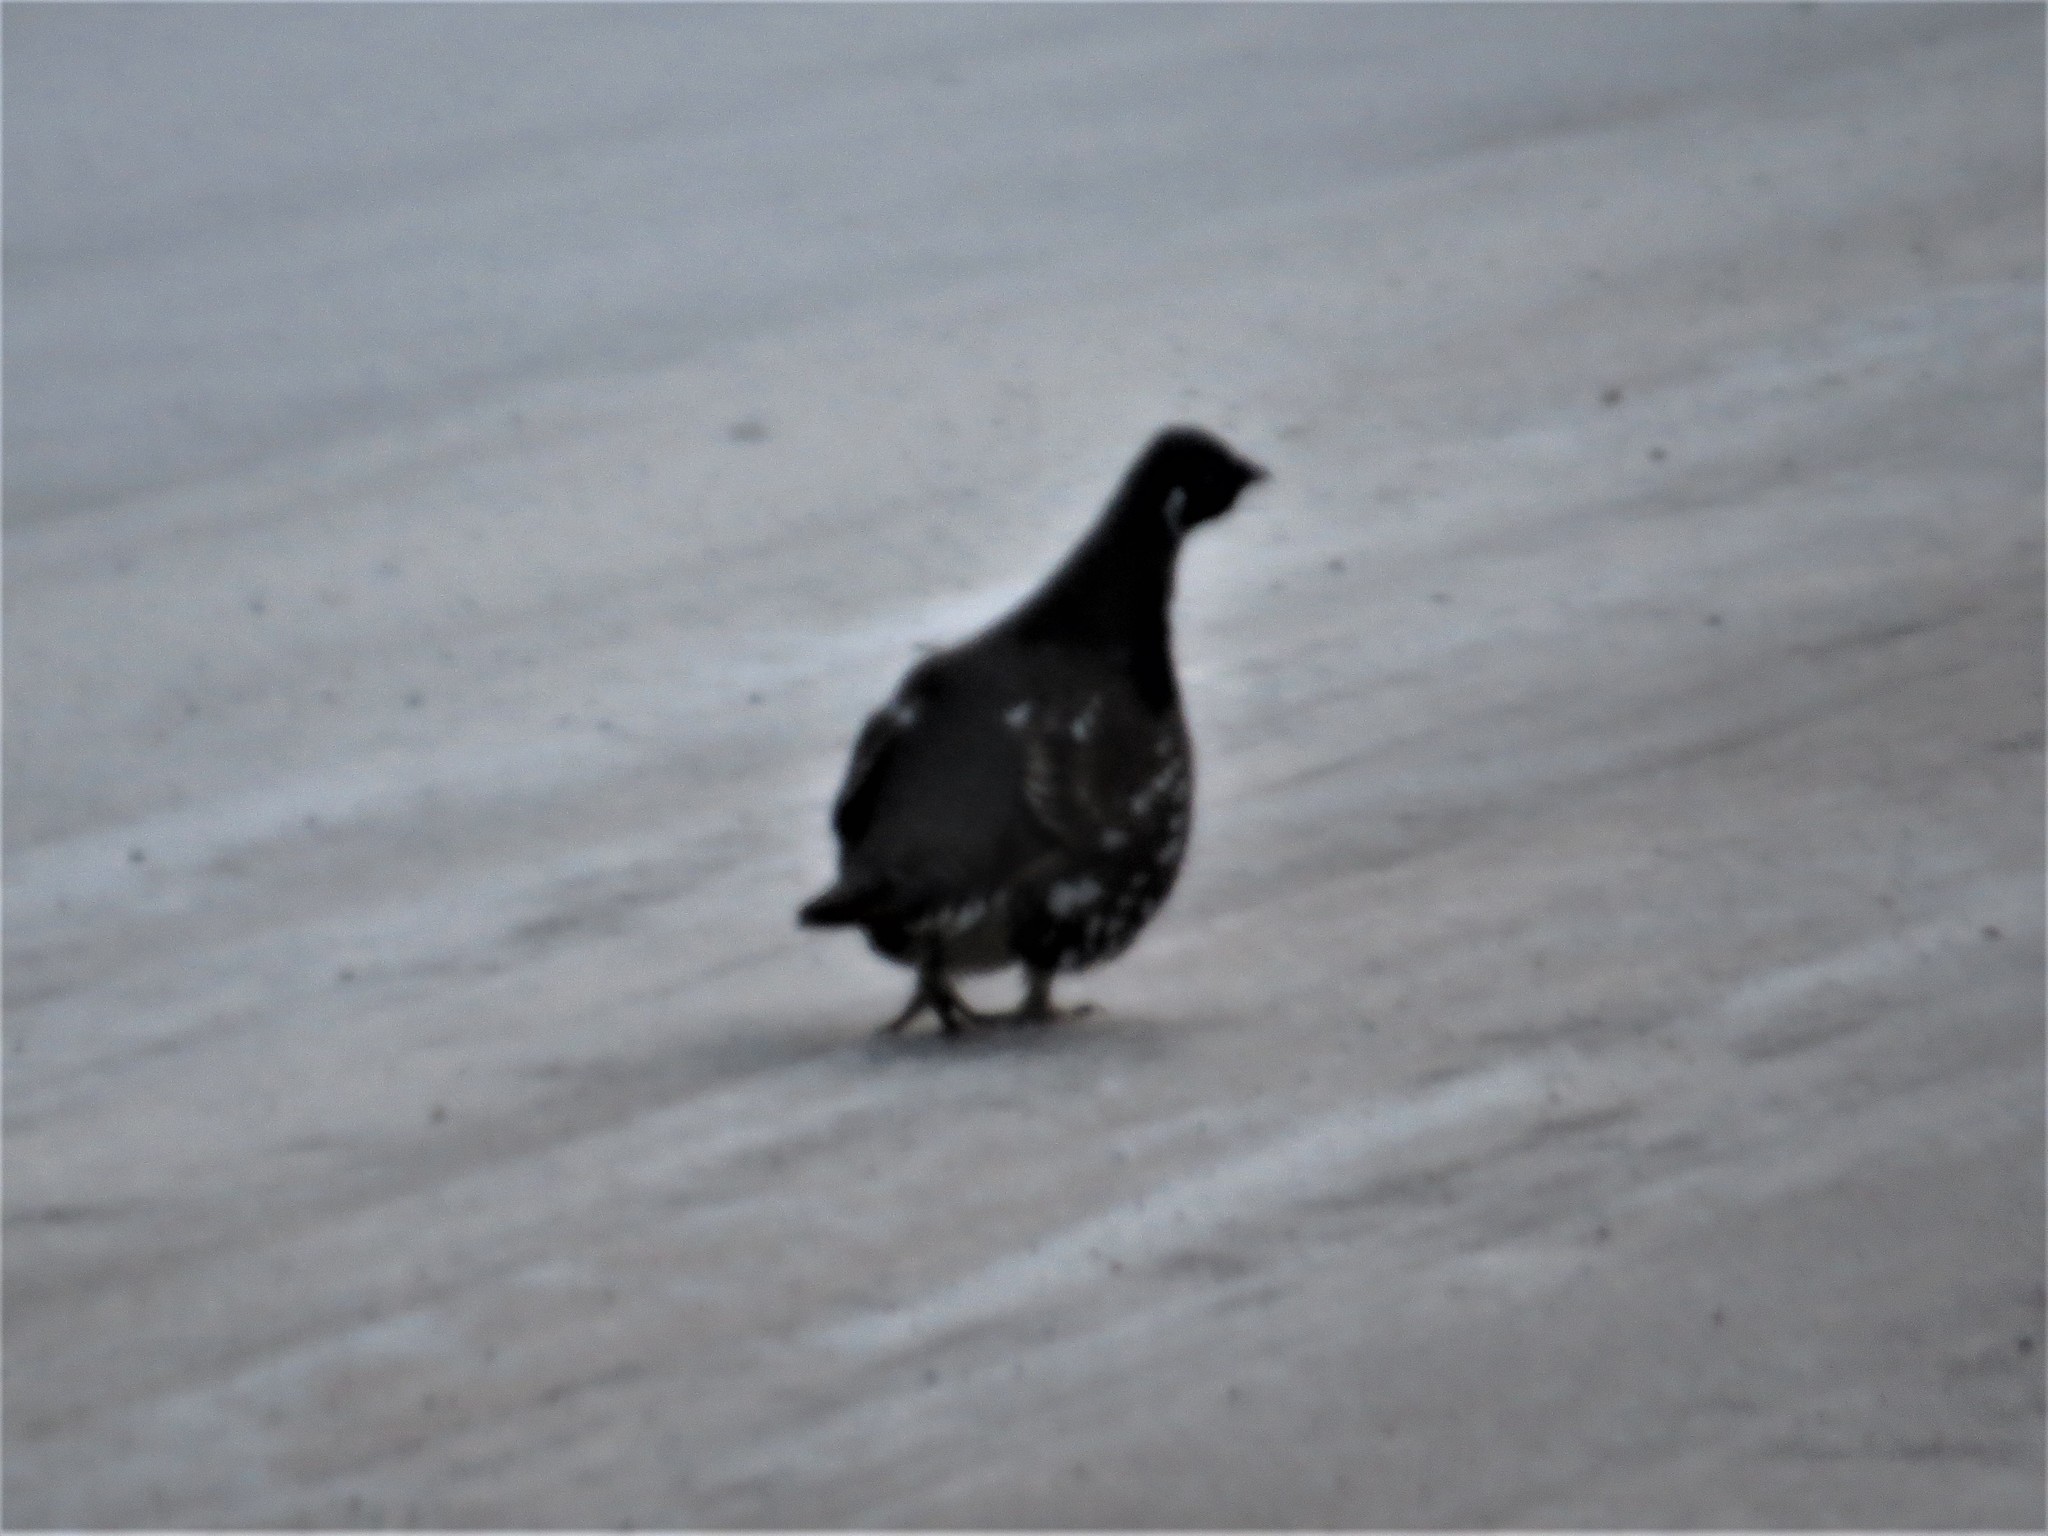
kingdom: Animalia
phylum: Chordata
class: Aves
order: Galliformes
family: Phasianidae
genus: Canachites
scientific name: Canachites canadensis
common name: Spruce grouse
